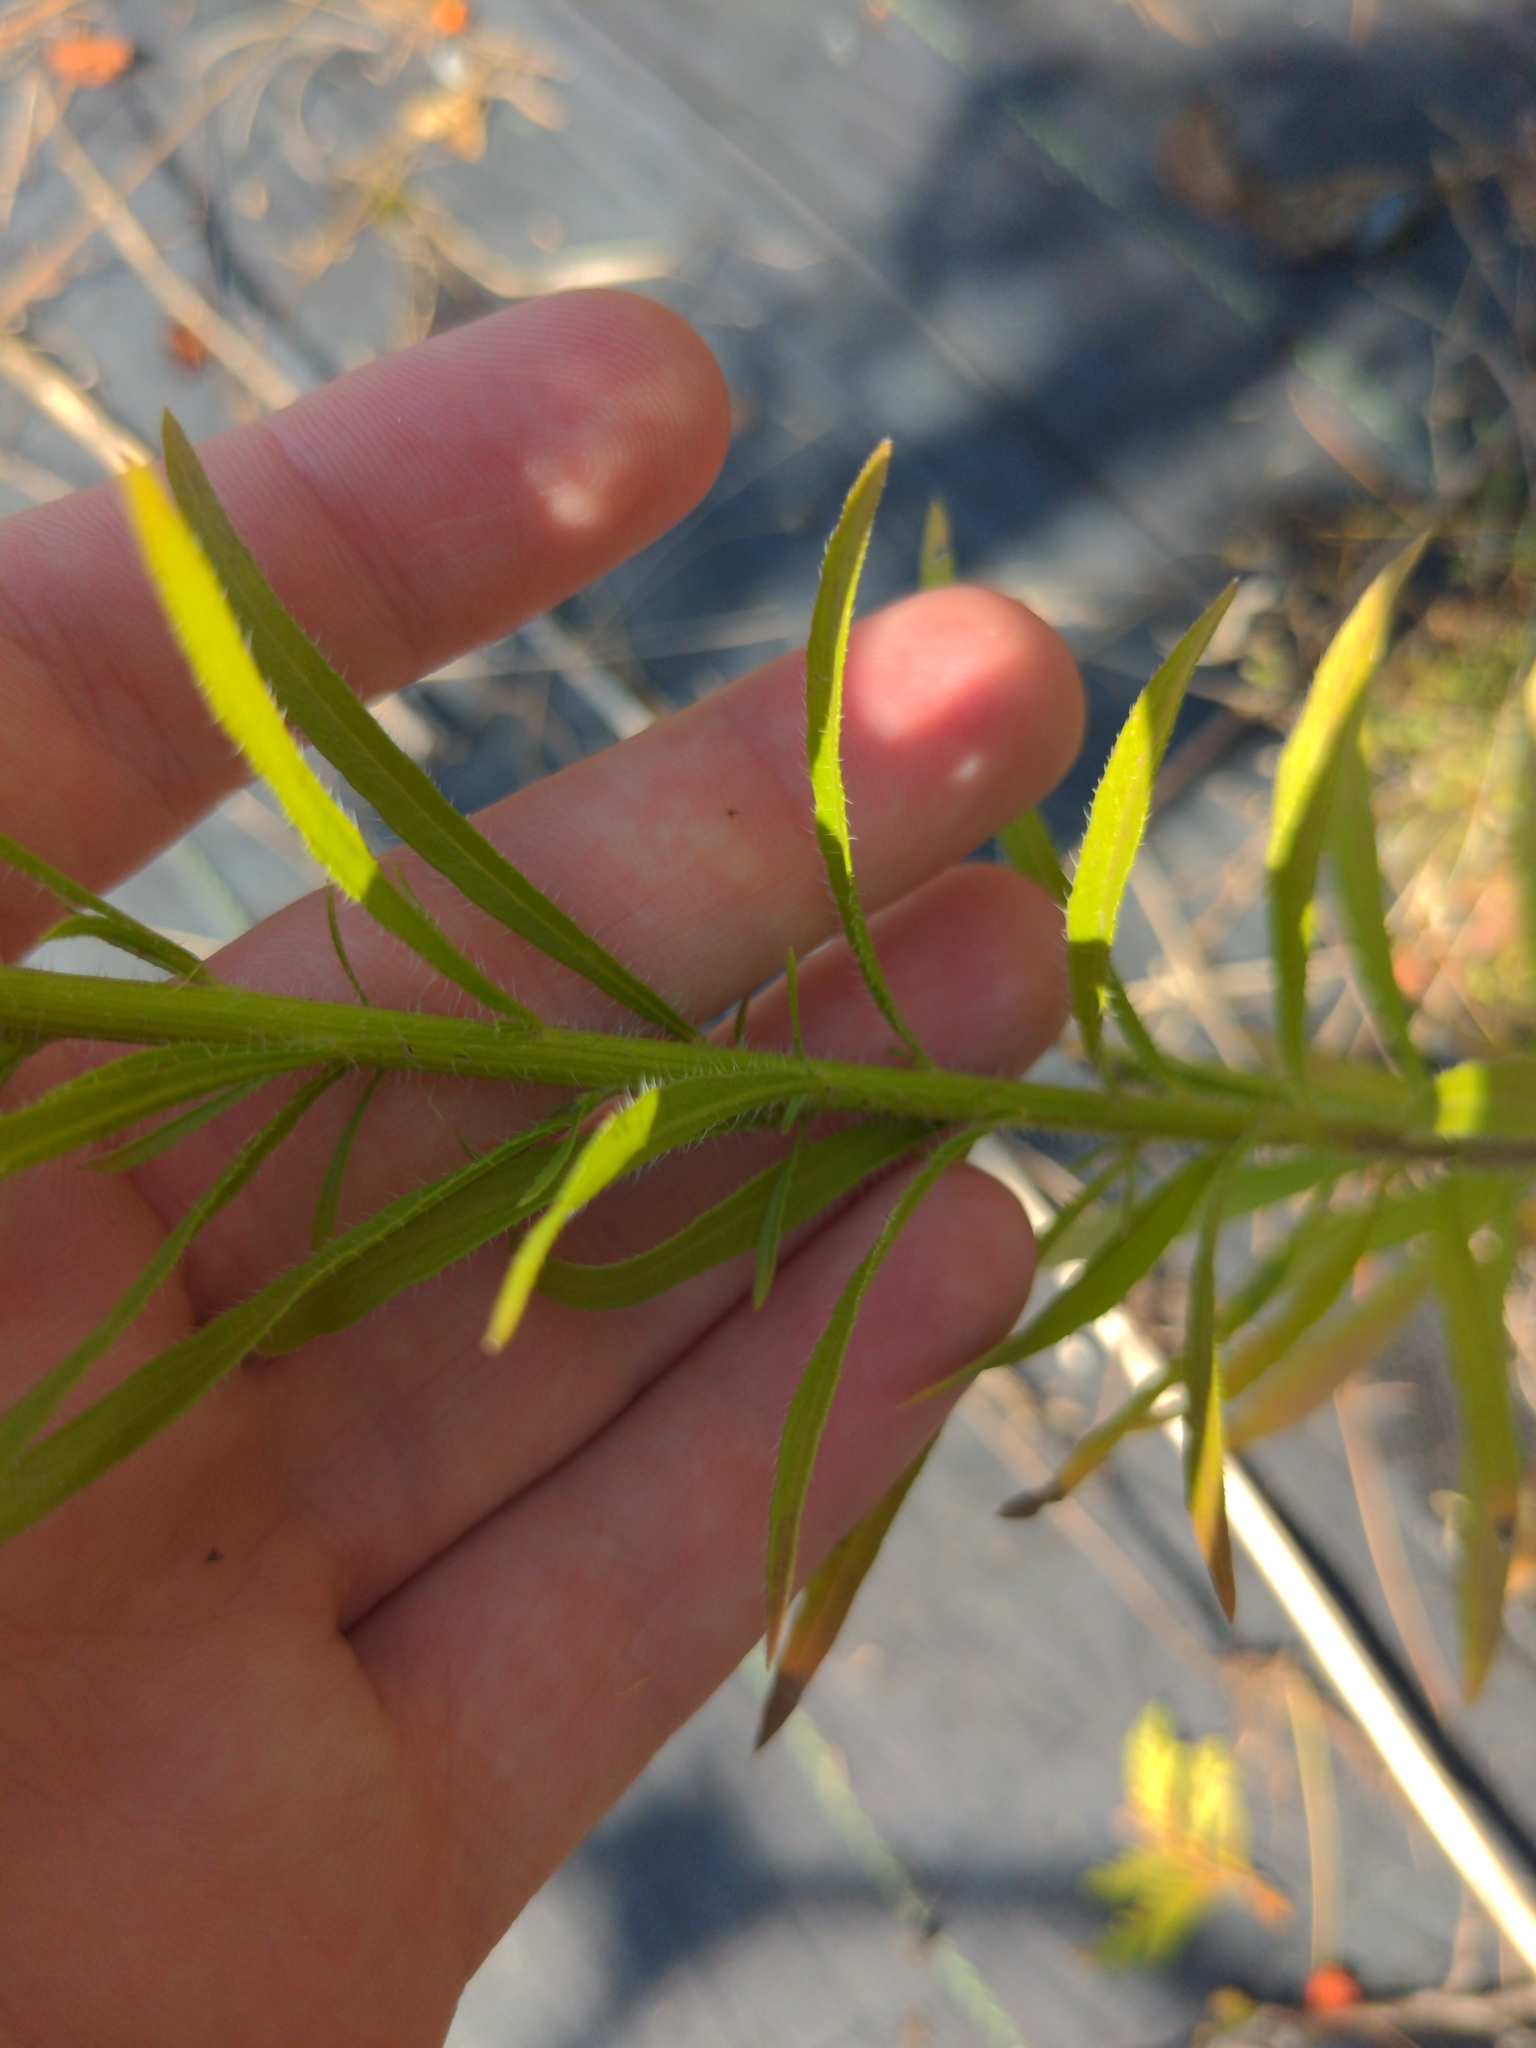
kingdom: Plantae
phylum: Tracheophyta
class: Magnoliopsida
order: Asterales
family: Asteraceae
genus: Erigeron
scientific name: Erigeron canadensis
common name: Canadian fleabane
